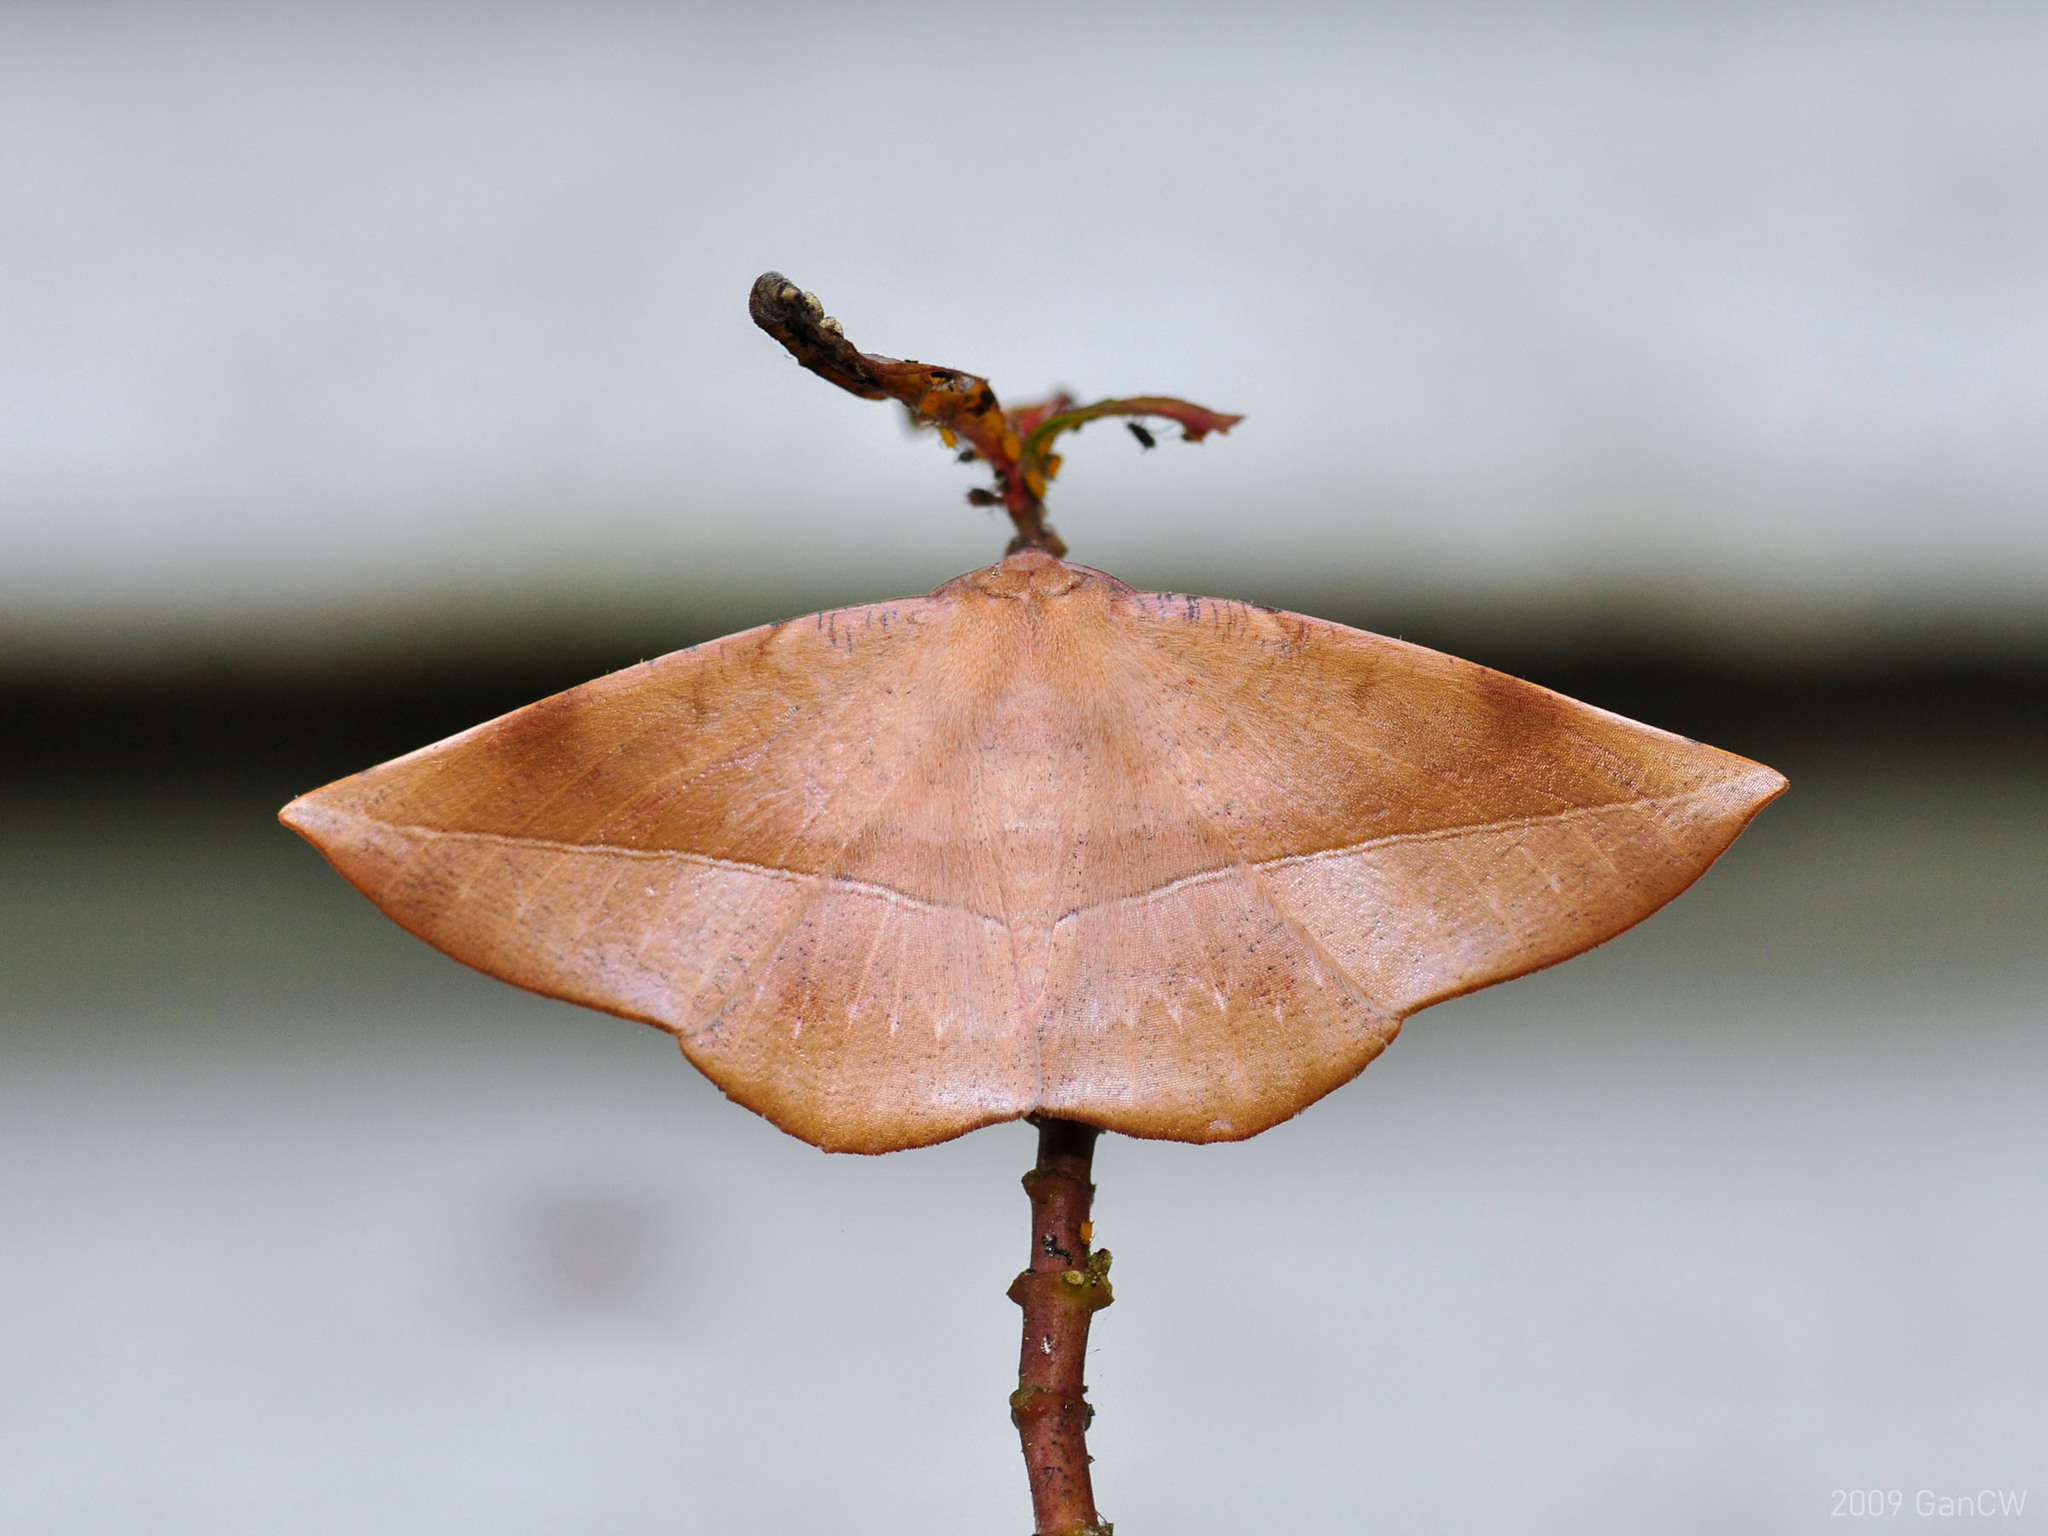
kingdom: Animalia
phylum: Arthropoda
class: Insecta
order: Lepidoptera
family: Geometridae
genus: Sarcinodes
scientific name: Sarcinodes sumatraria
